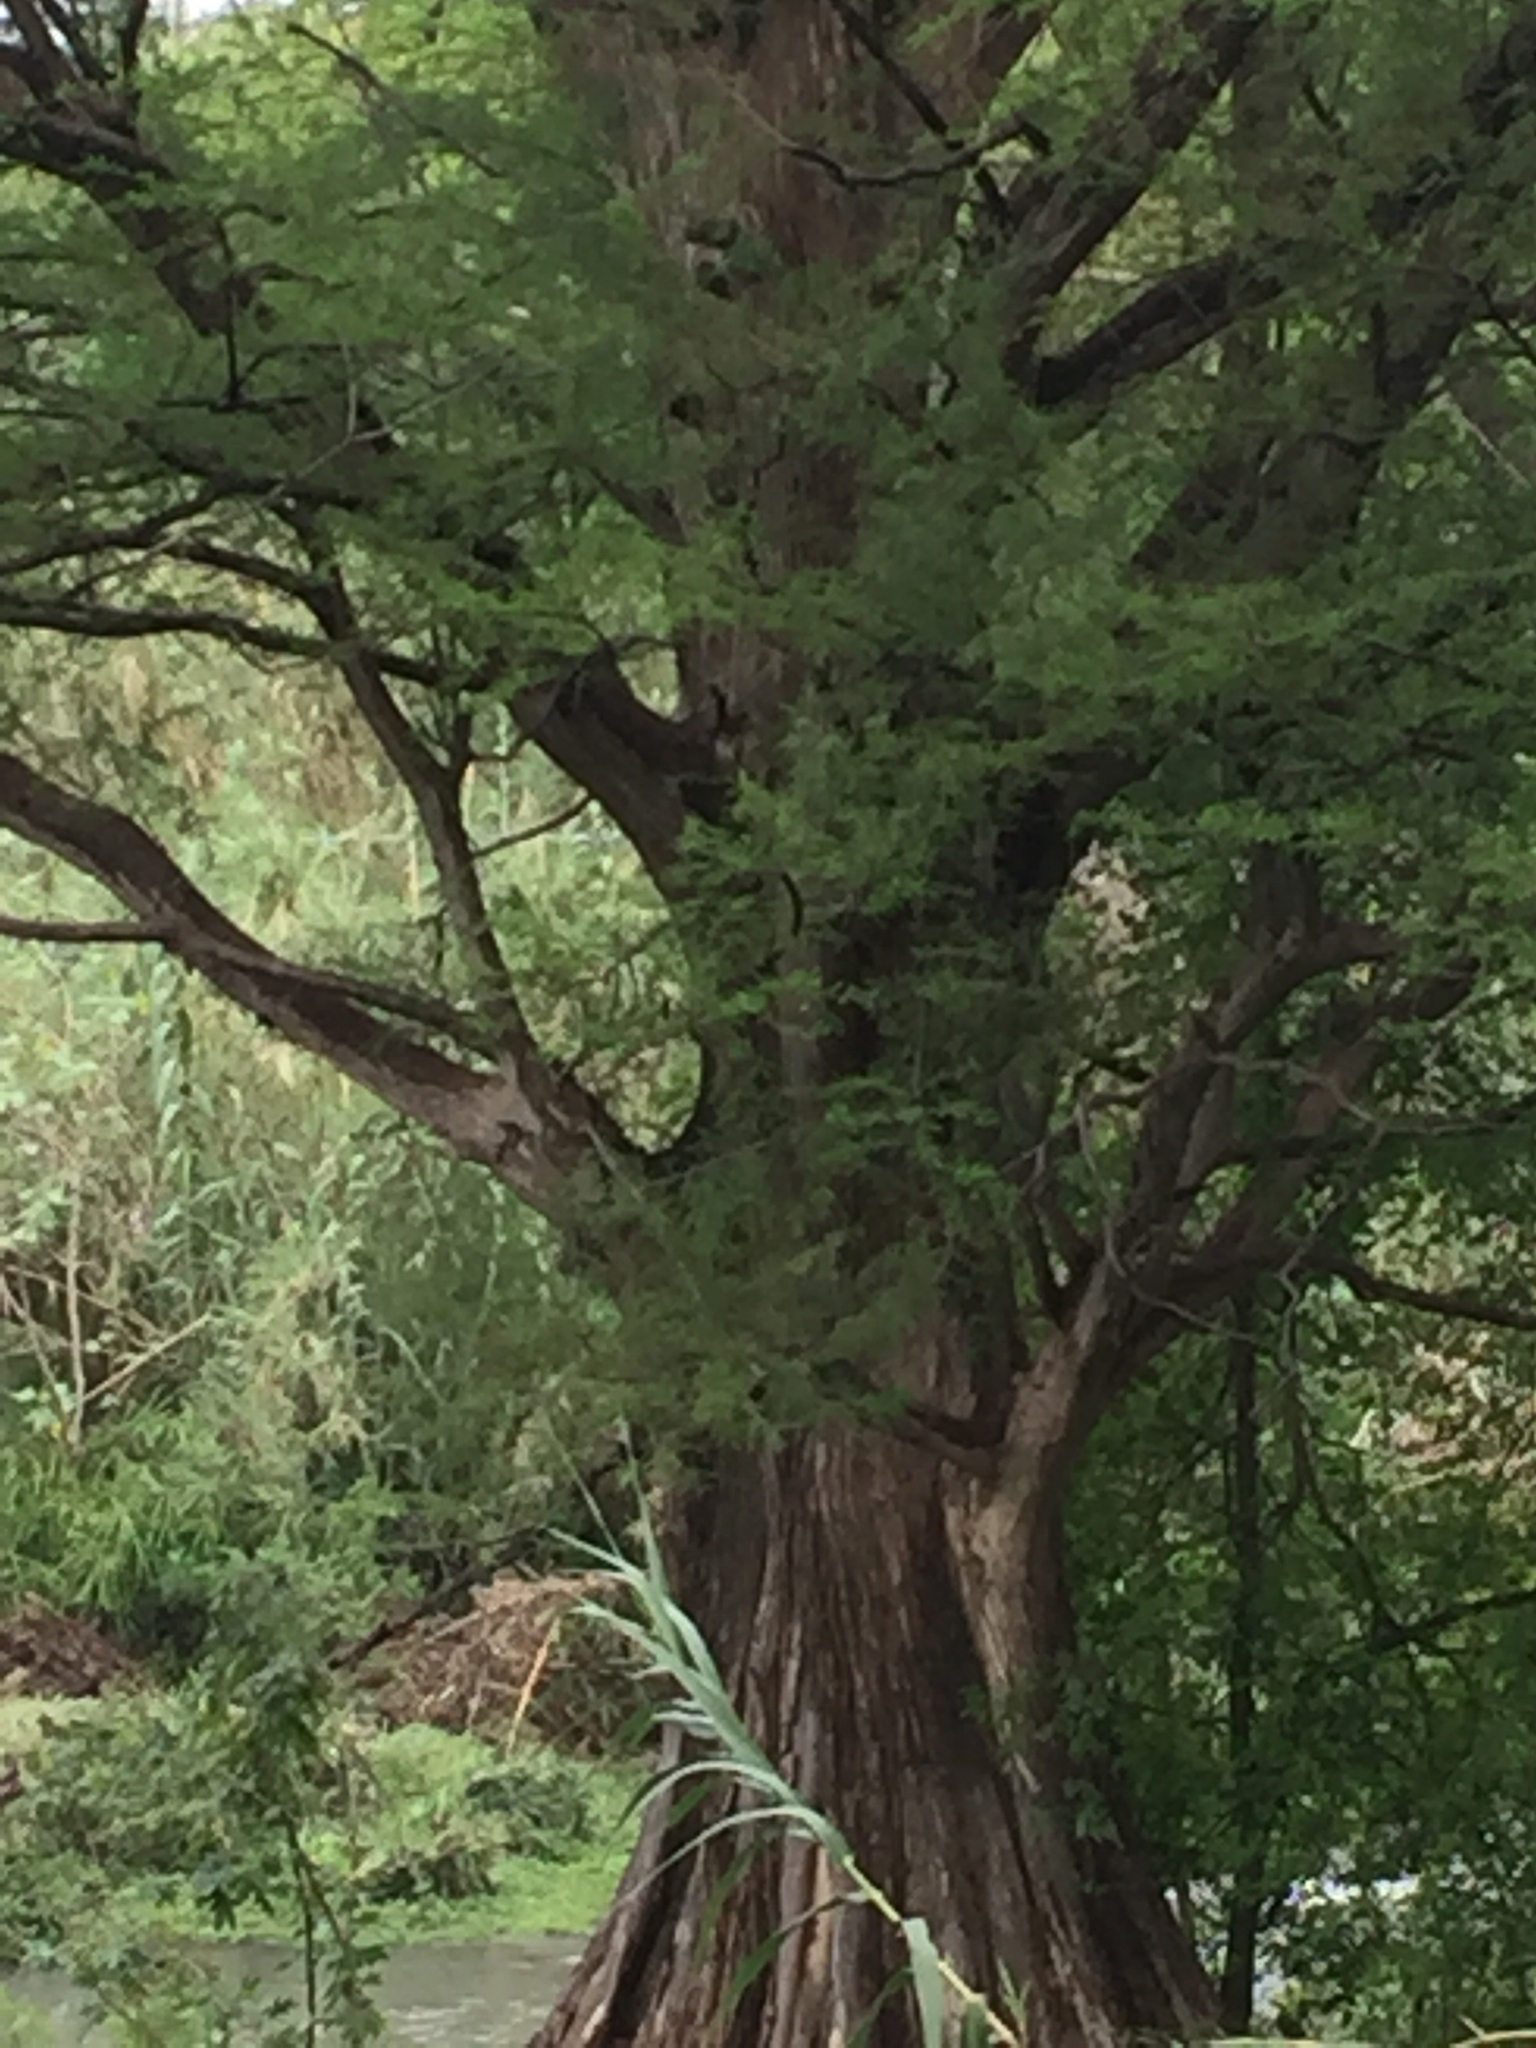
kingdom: Plantae
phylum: Tracheophyta
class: Pinopsida
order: Pinales
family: Cupressaceae
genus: Taxodium
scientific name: Taxodium mucronatum
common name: Montezume bald cypress
